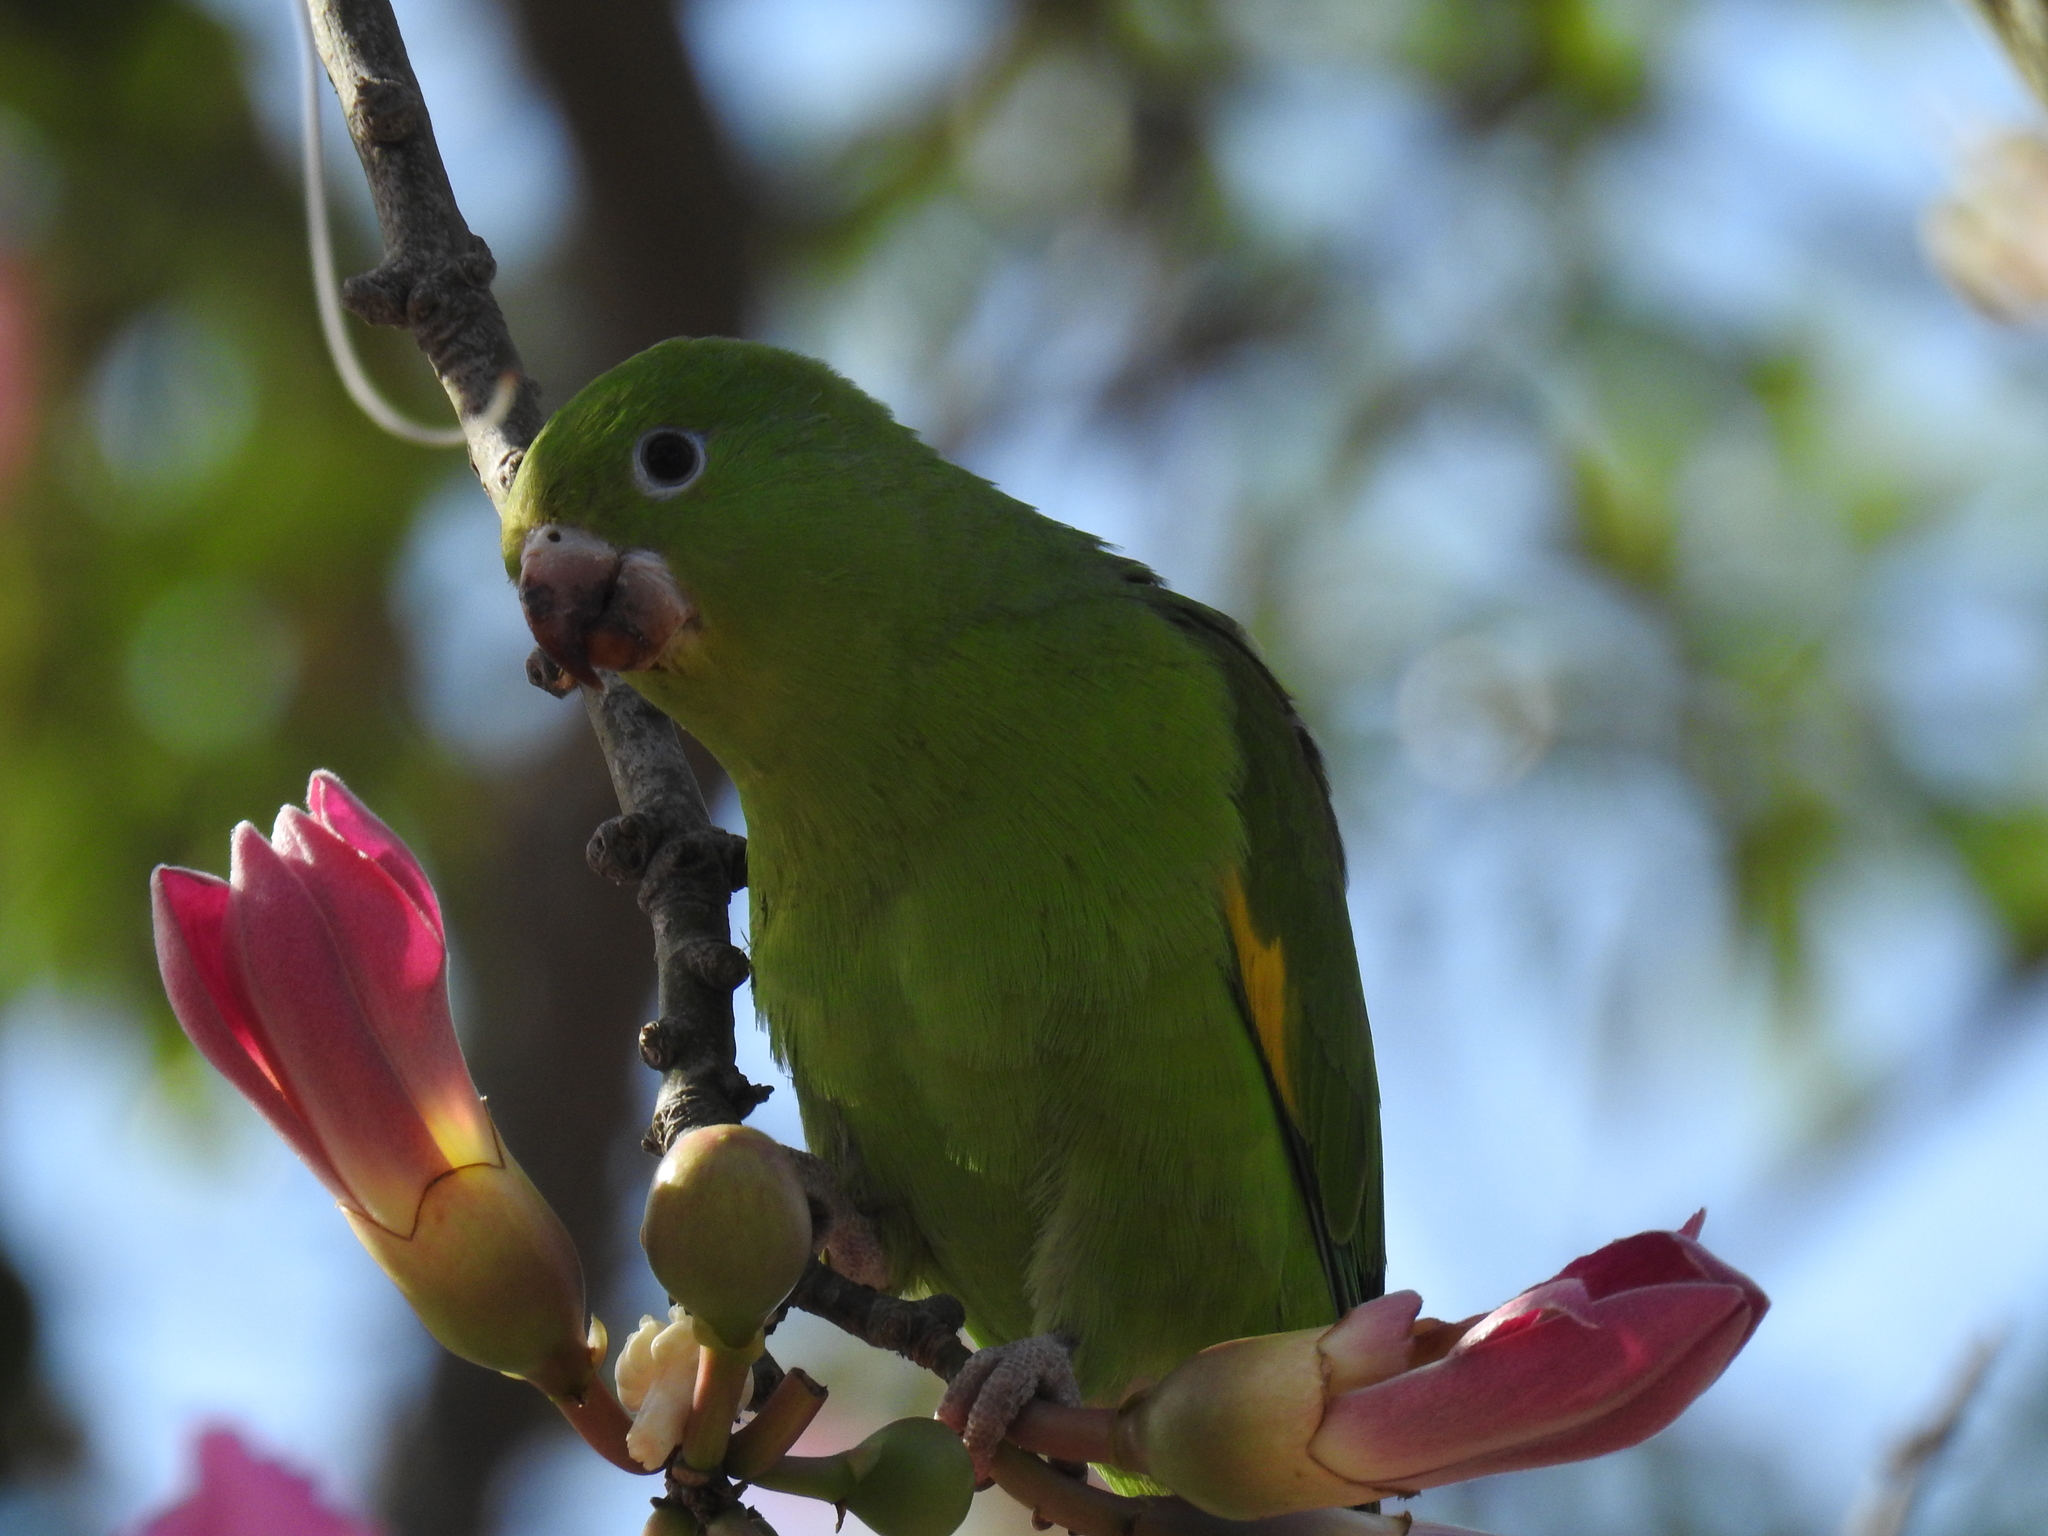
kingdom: Animalia
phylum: Chordata
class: Aves
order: Psittaciformes
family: Psittacidae
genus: Brotogeris
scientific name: Brotogeris chiriri
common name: Yellow-chevroned parakeet
